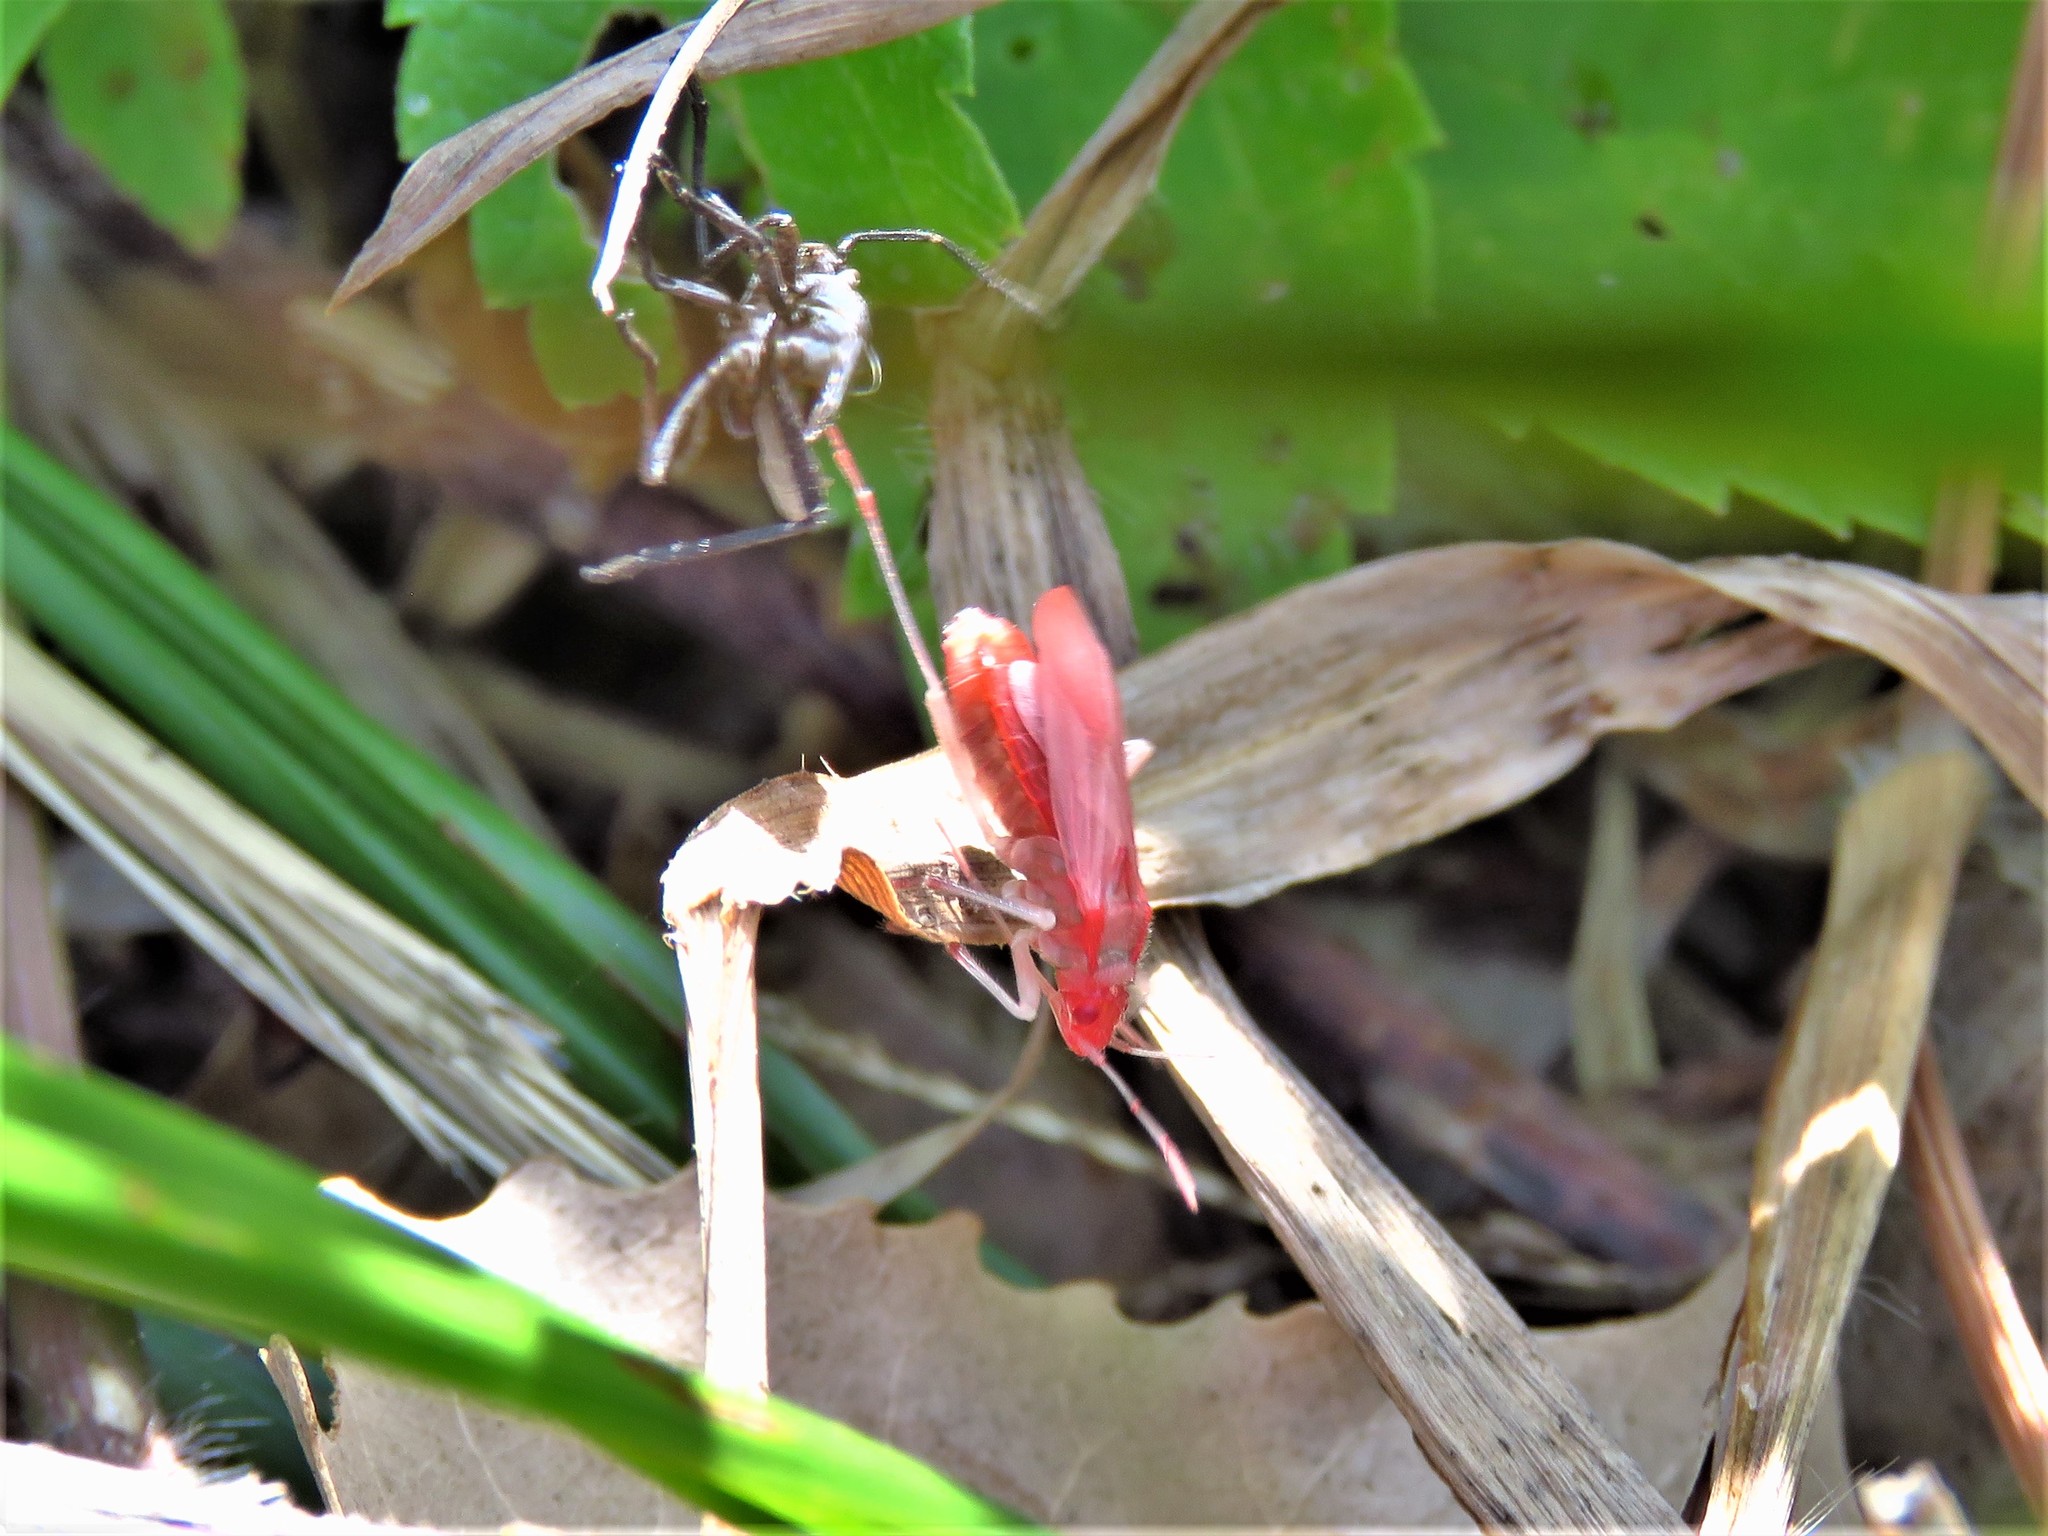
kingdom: Animalia
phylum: Arthropoda
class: Insecta
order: Hemiptera
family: Rhopalidae
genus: Jadera
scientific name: Jadera haematoloma
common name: Red-shouldered bug
